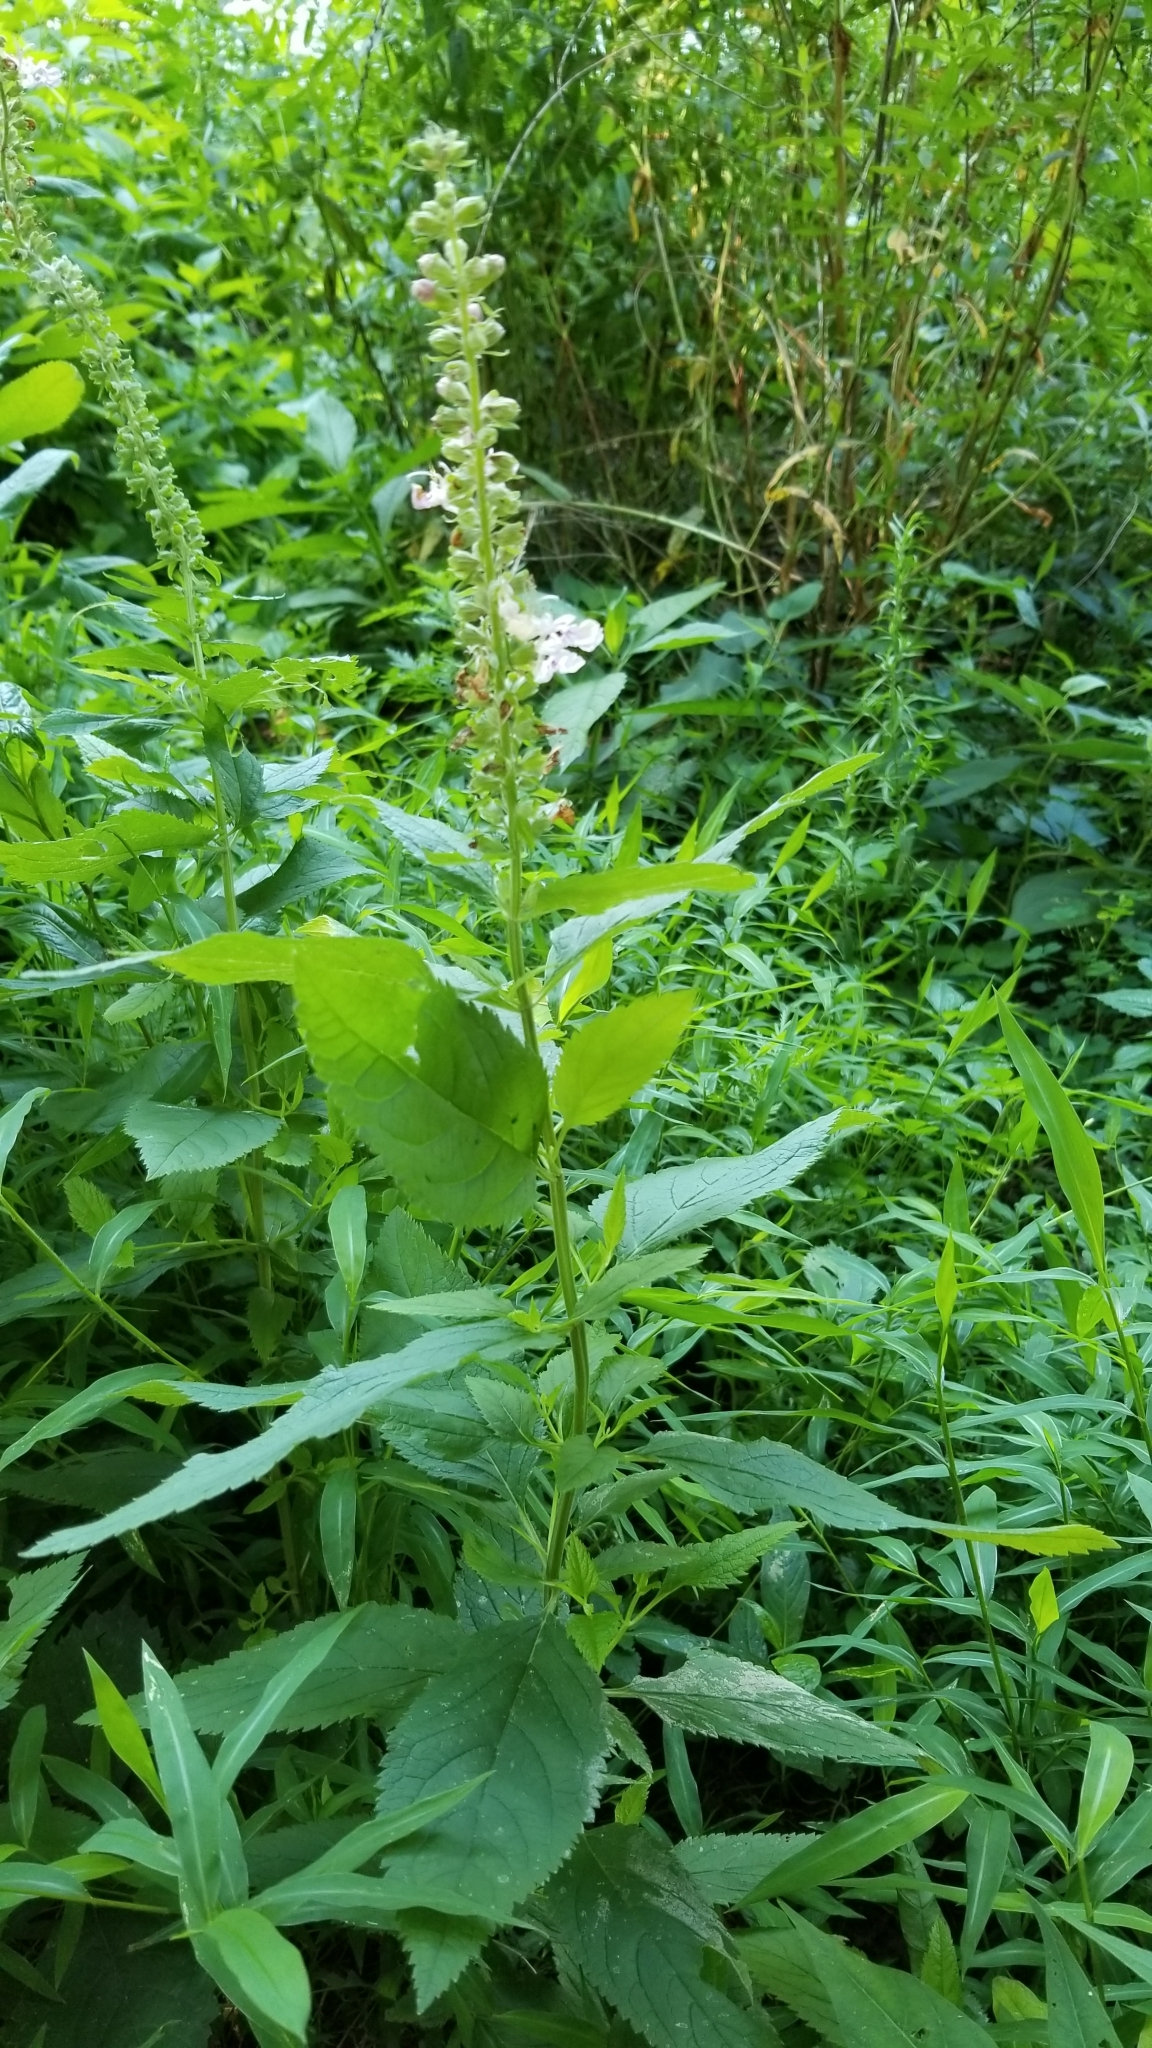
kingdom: Plantae
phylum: Tracheophyta
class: Magnoliopsida
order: Lamiales
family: Lamiaceae
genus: Teucrium
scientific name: Teucrium canadense
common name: American germander
